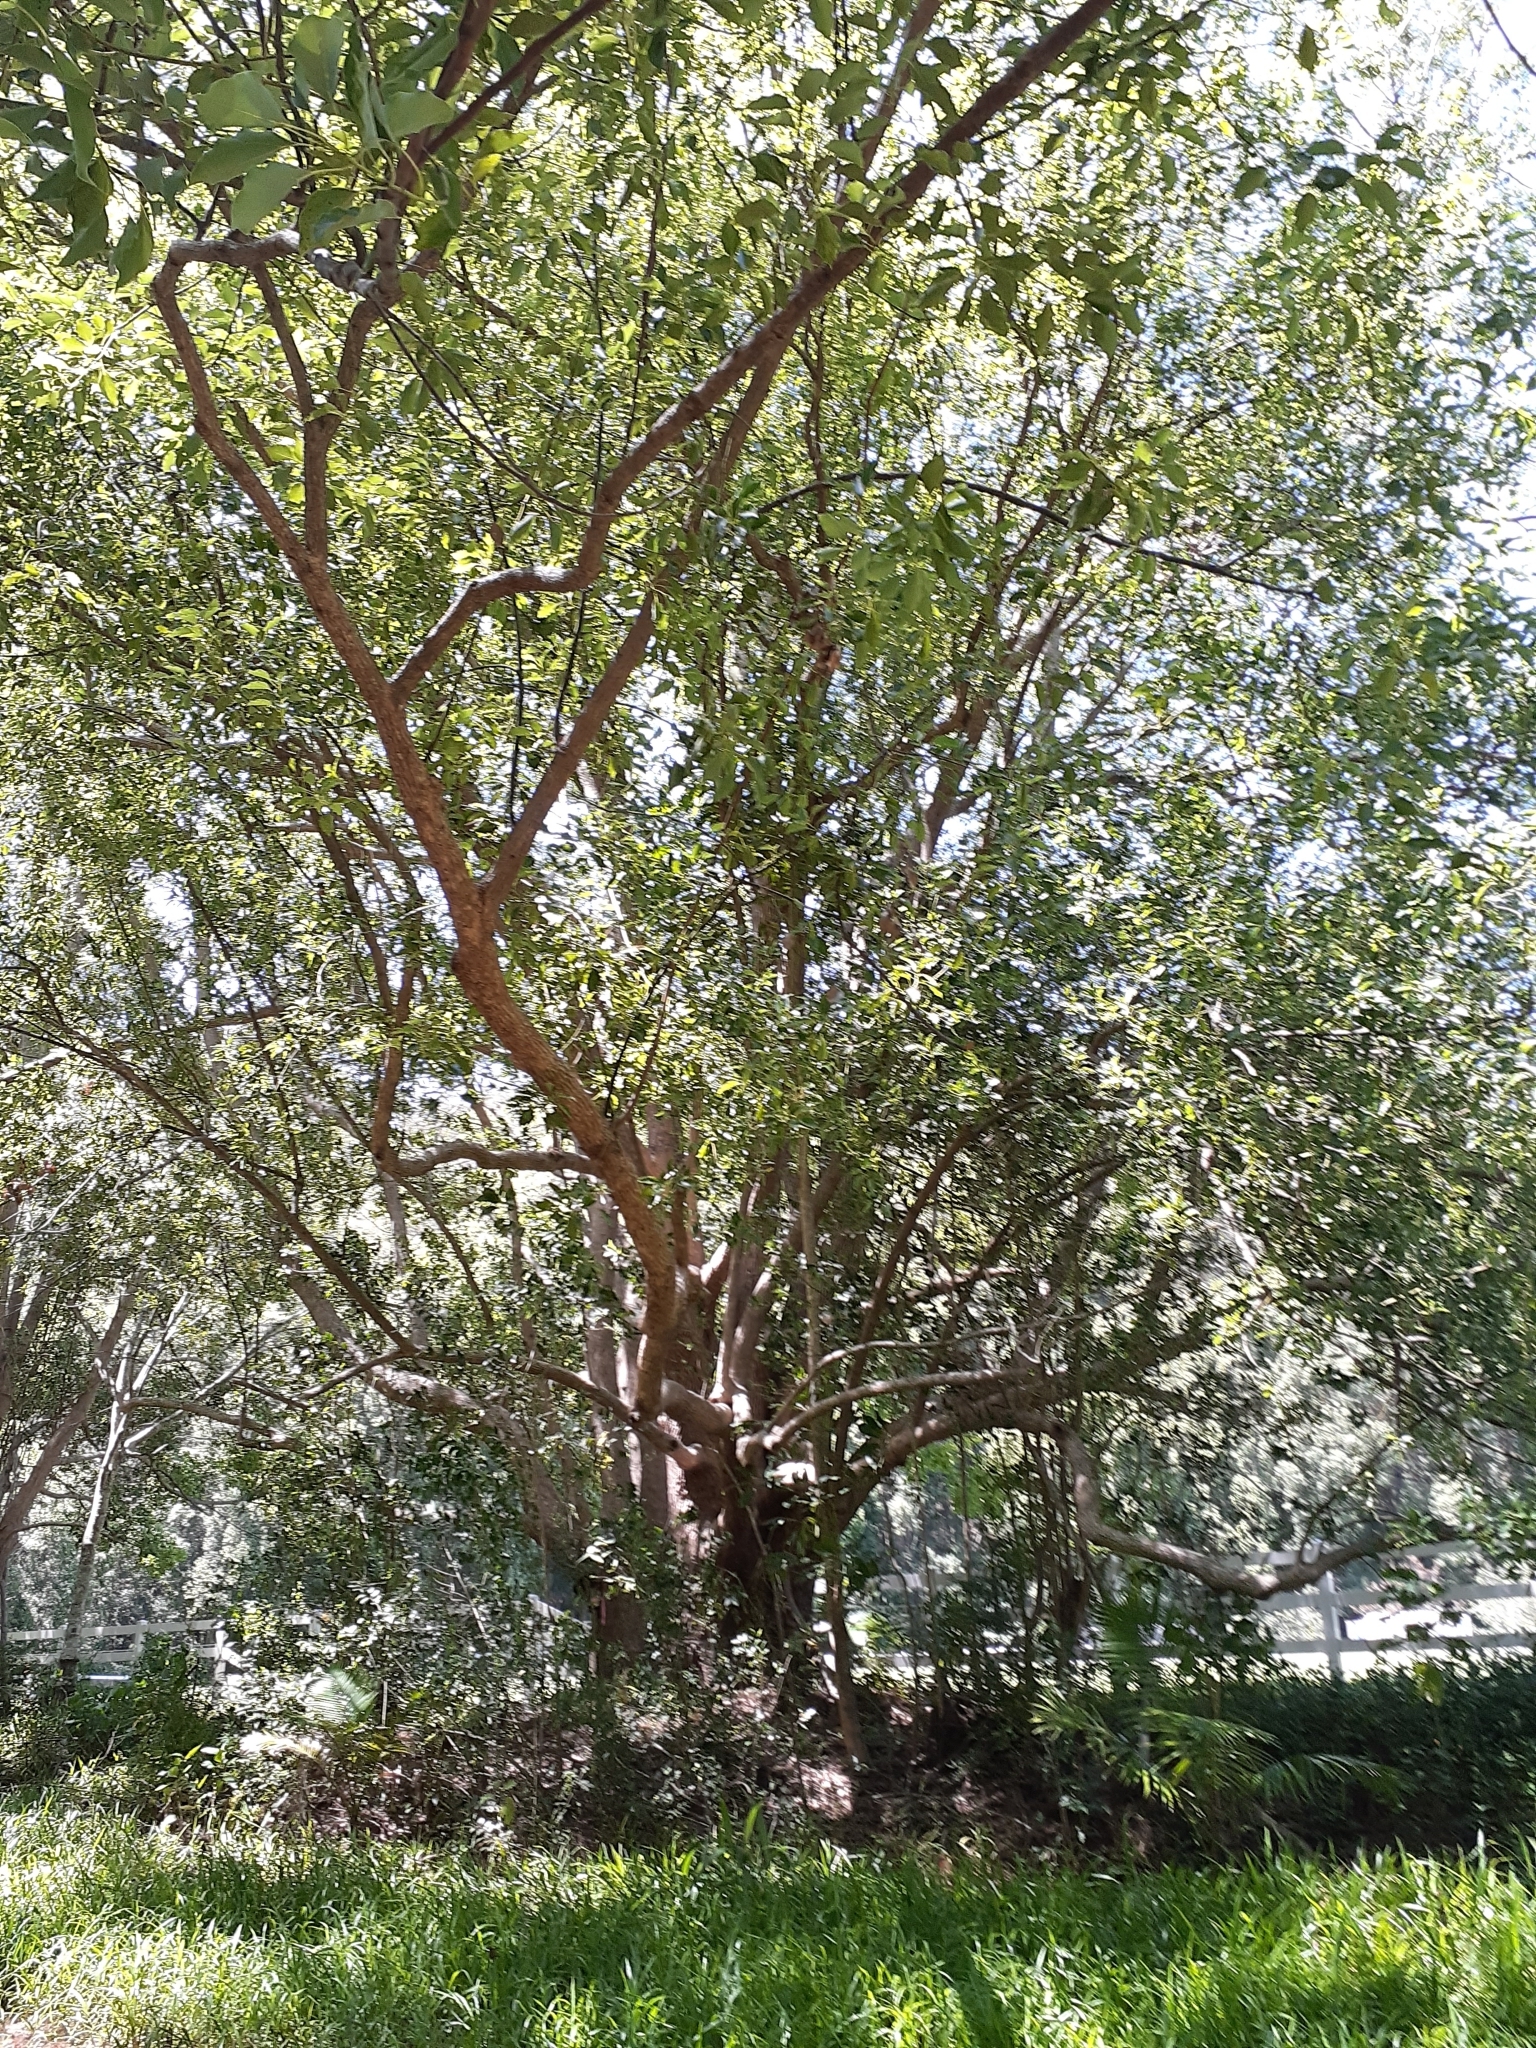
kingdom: Plantae
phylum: Tracheophyta
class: Magnoliopsida
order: Laurales
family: Lauraceae
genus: Cinnamomum
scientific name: Cinnamomum camphora
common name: Camphortree
